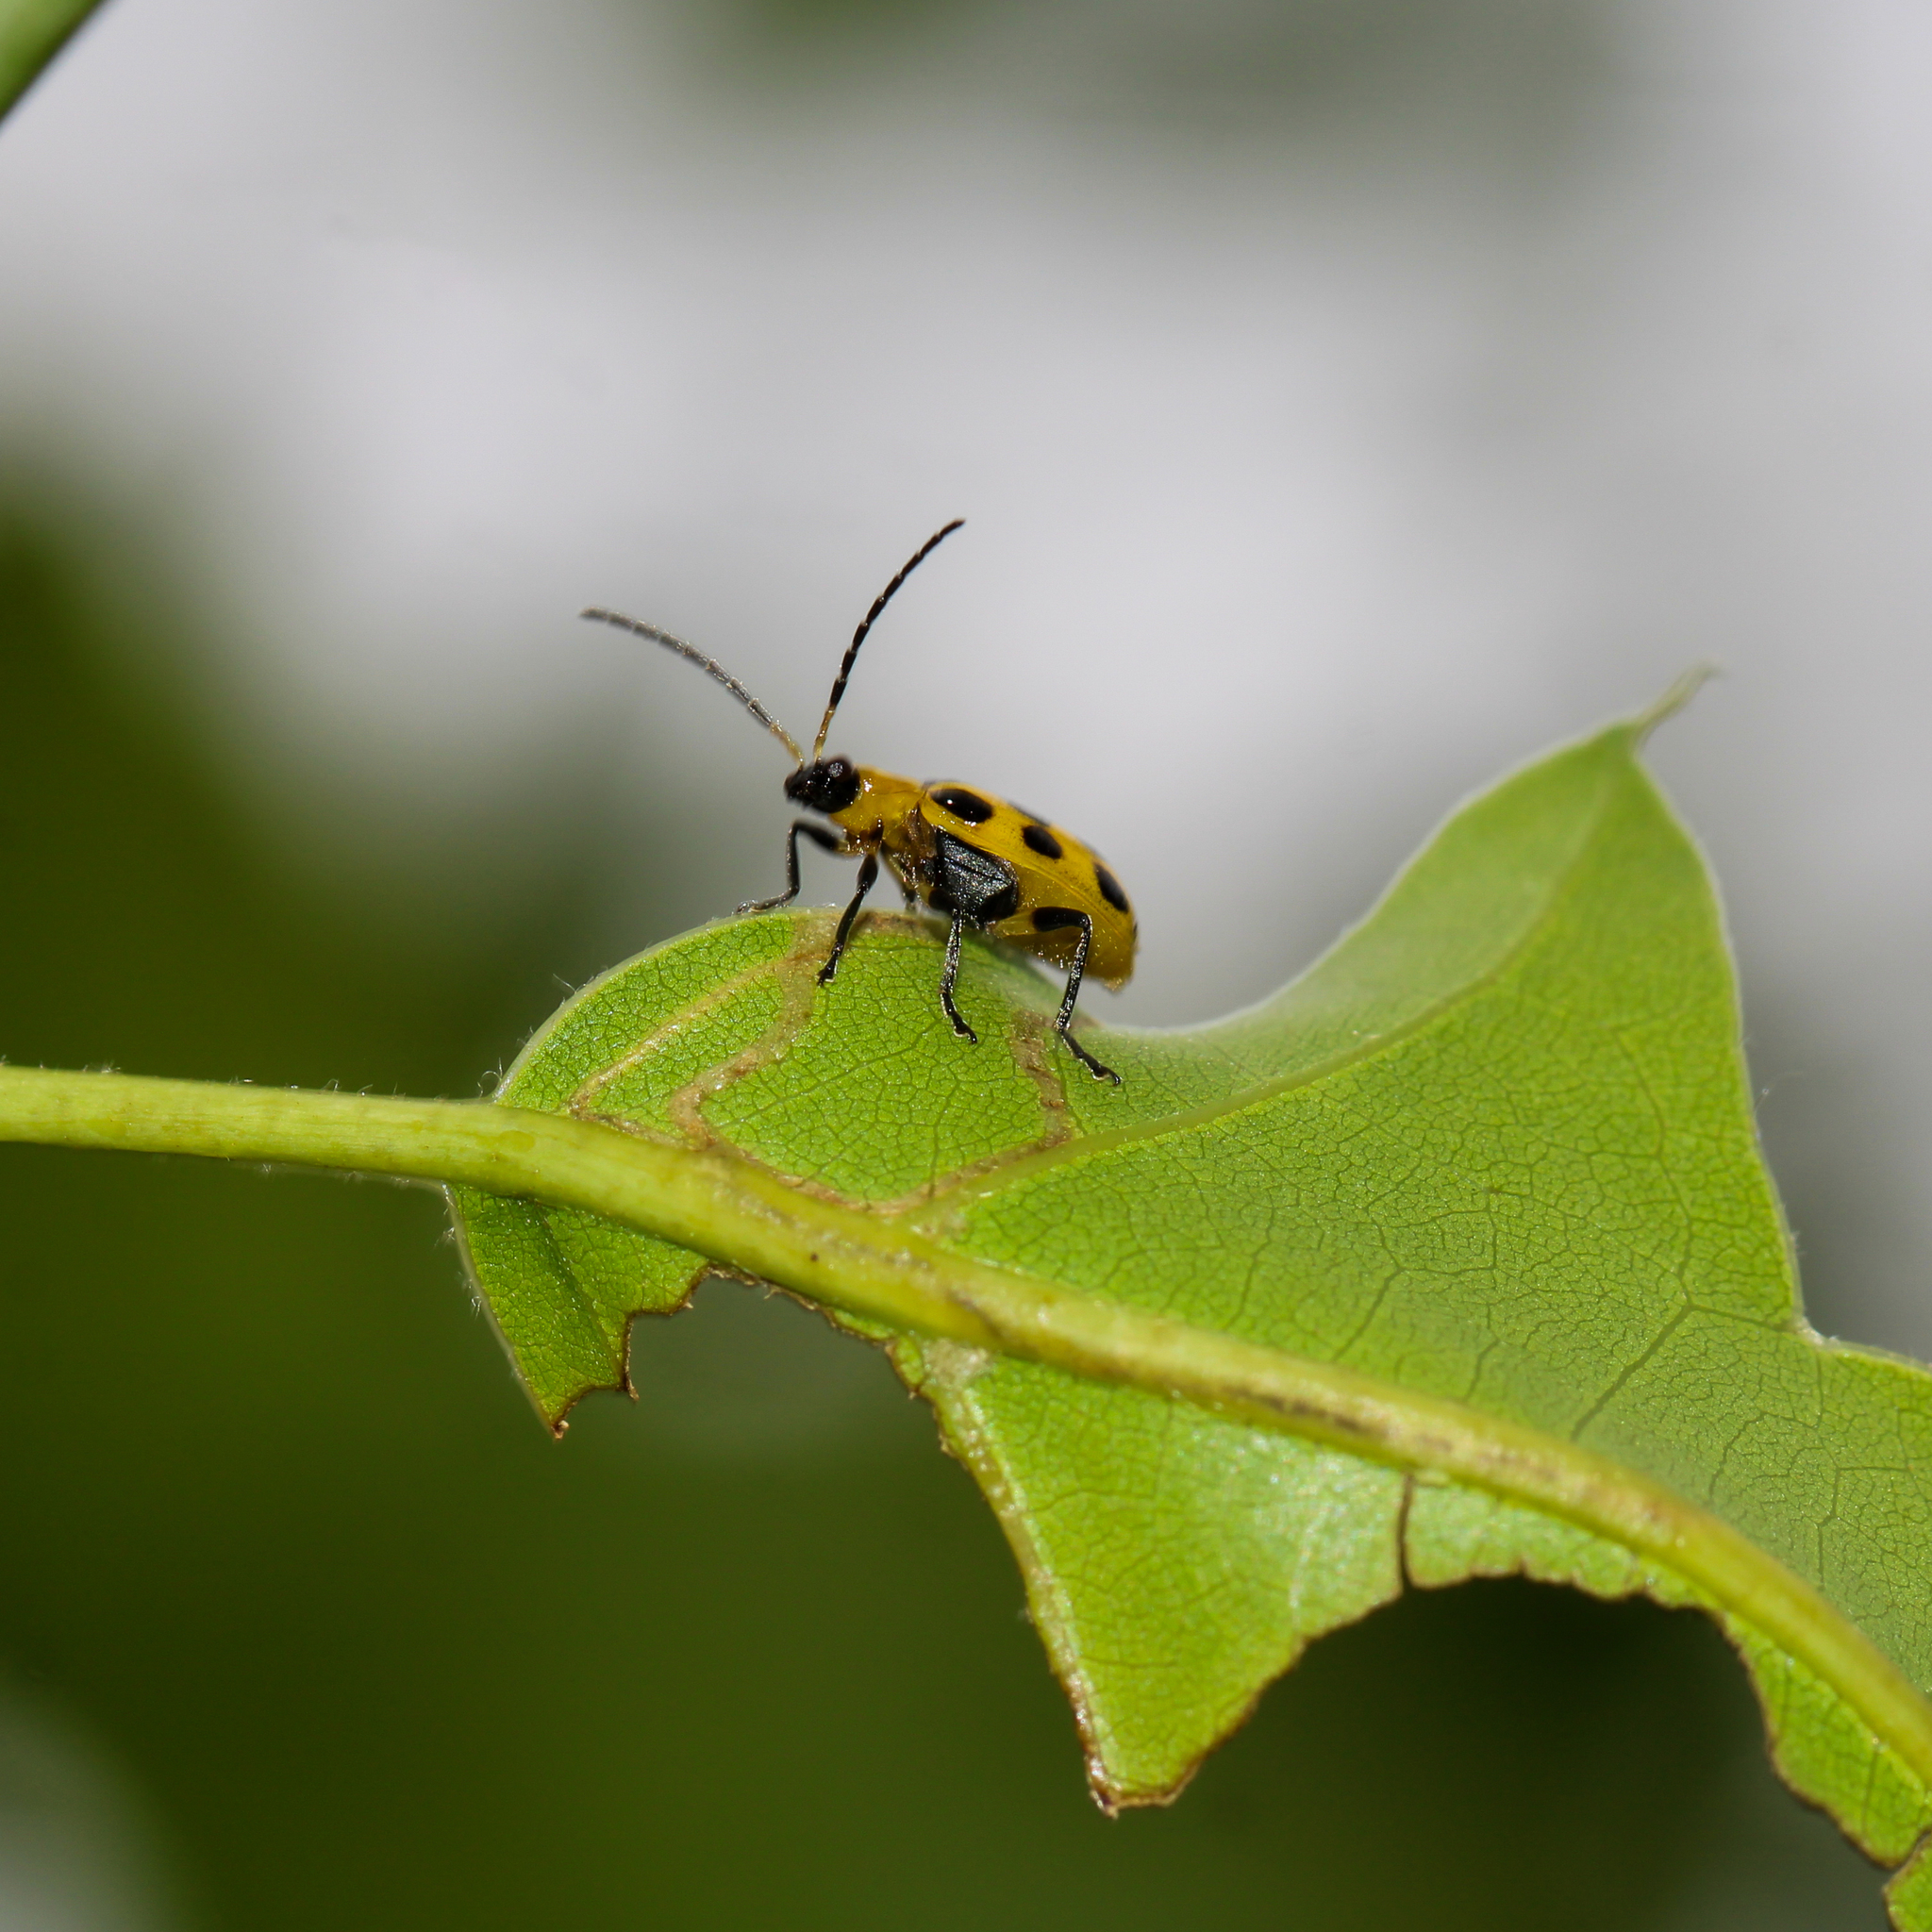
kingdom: Animalia
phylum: Arthropoda
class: Insecta
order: Coleoptera
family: Chrysomelidae
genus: Diabrotica
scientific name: Diabrotica undecimpunctata
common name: Spotted cucumber beetle
